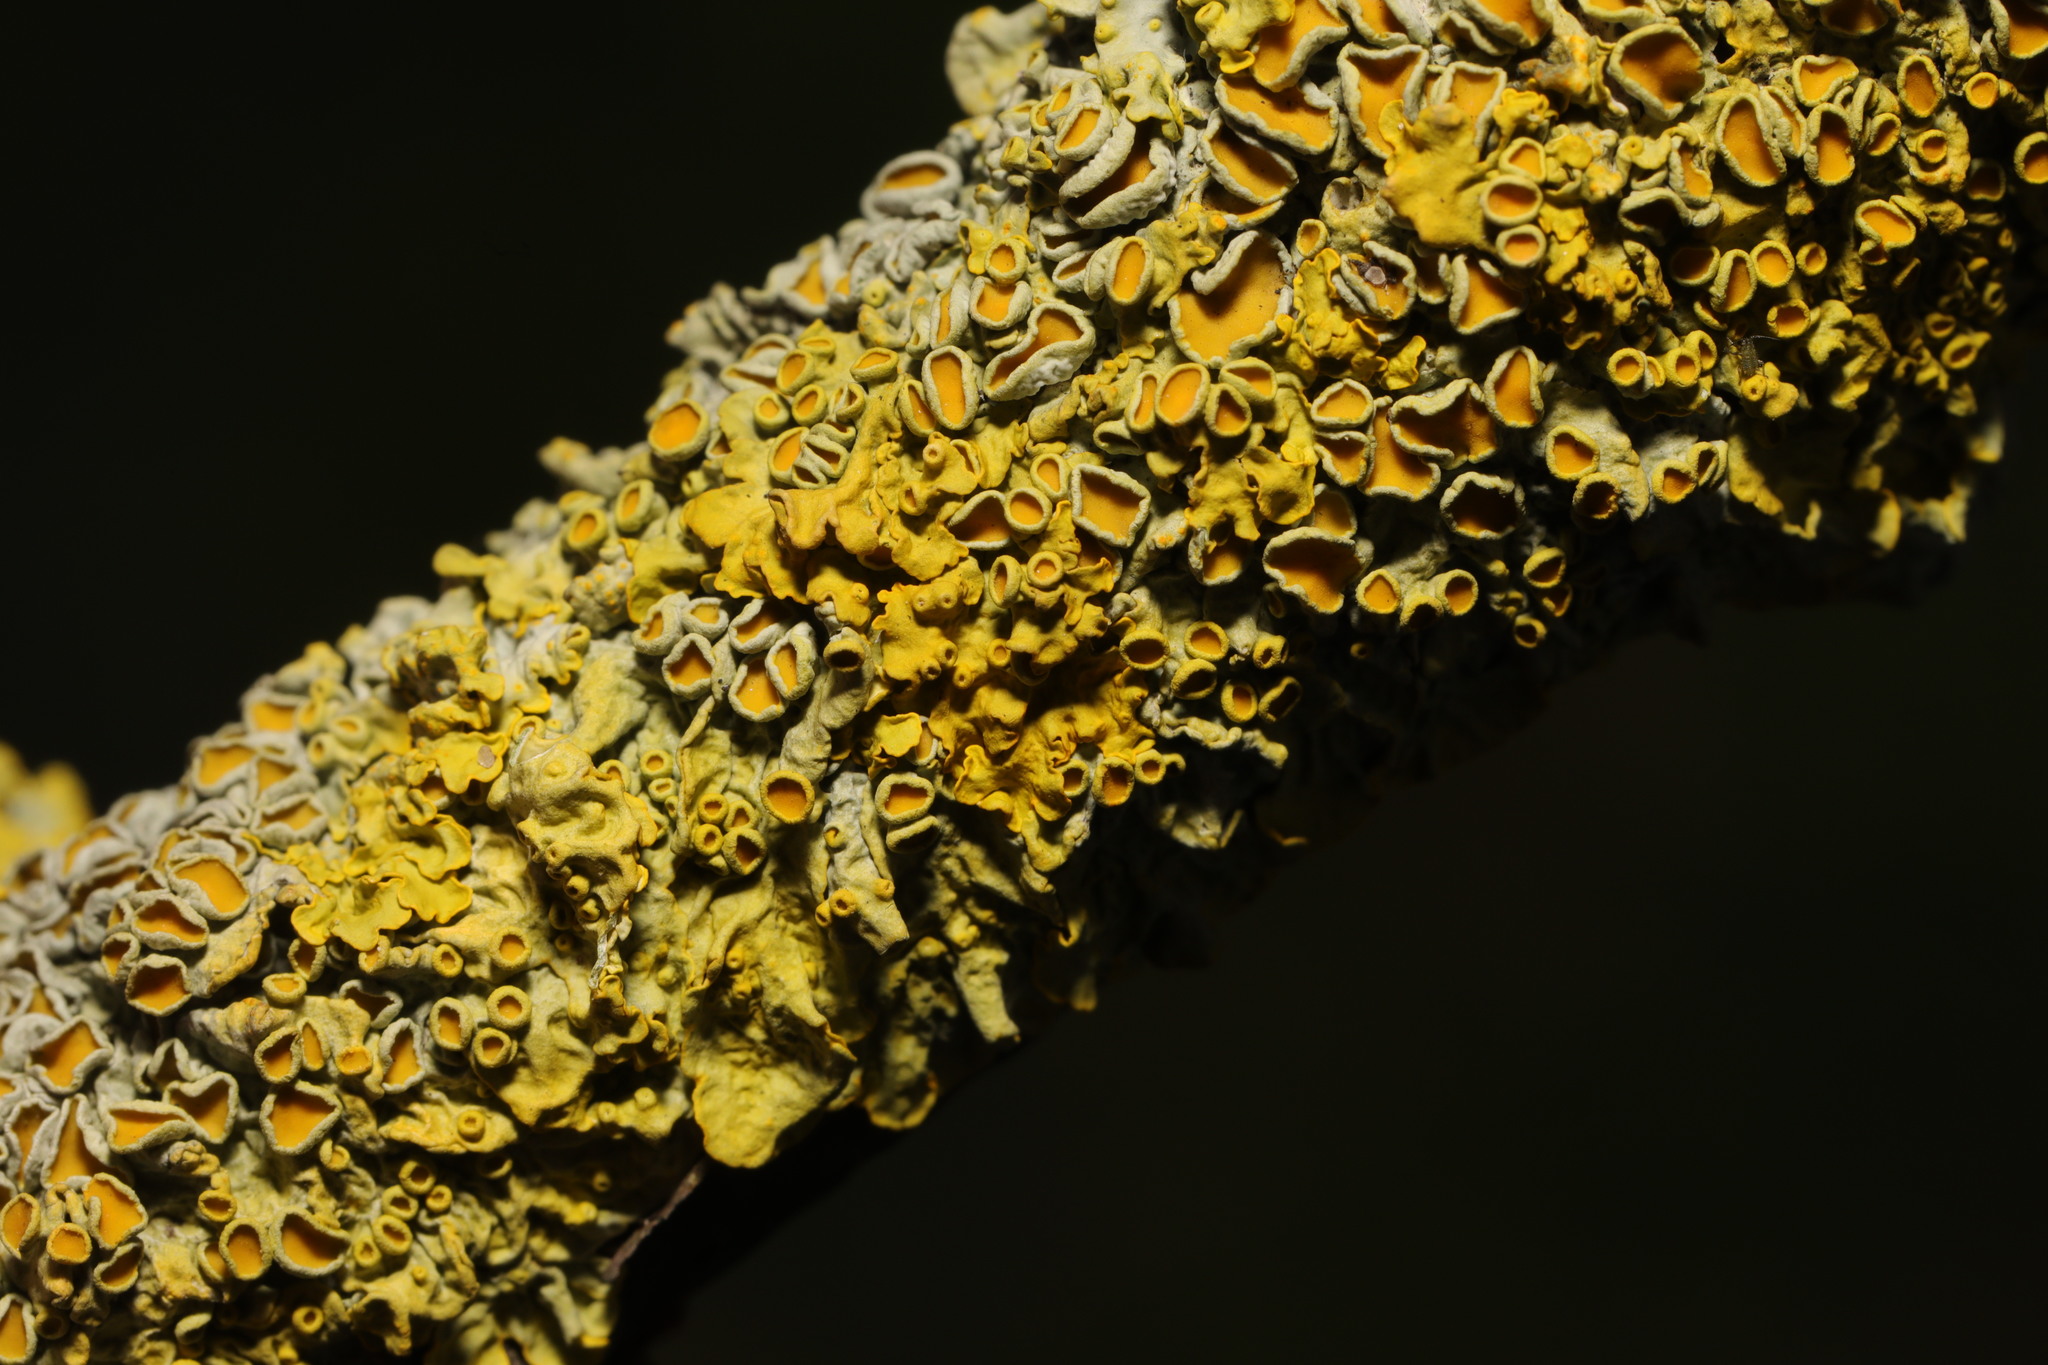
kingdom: Fungi
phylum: Ascomycota
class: Lecanoromycetes
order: Teloschistales
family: Teloschistaceae
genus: Xanthoria
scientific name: Xanthoria parietina
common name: Common orange lichen
